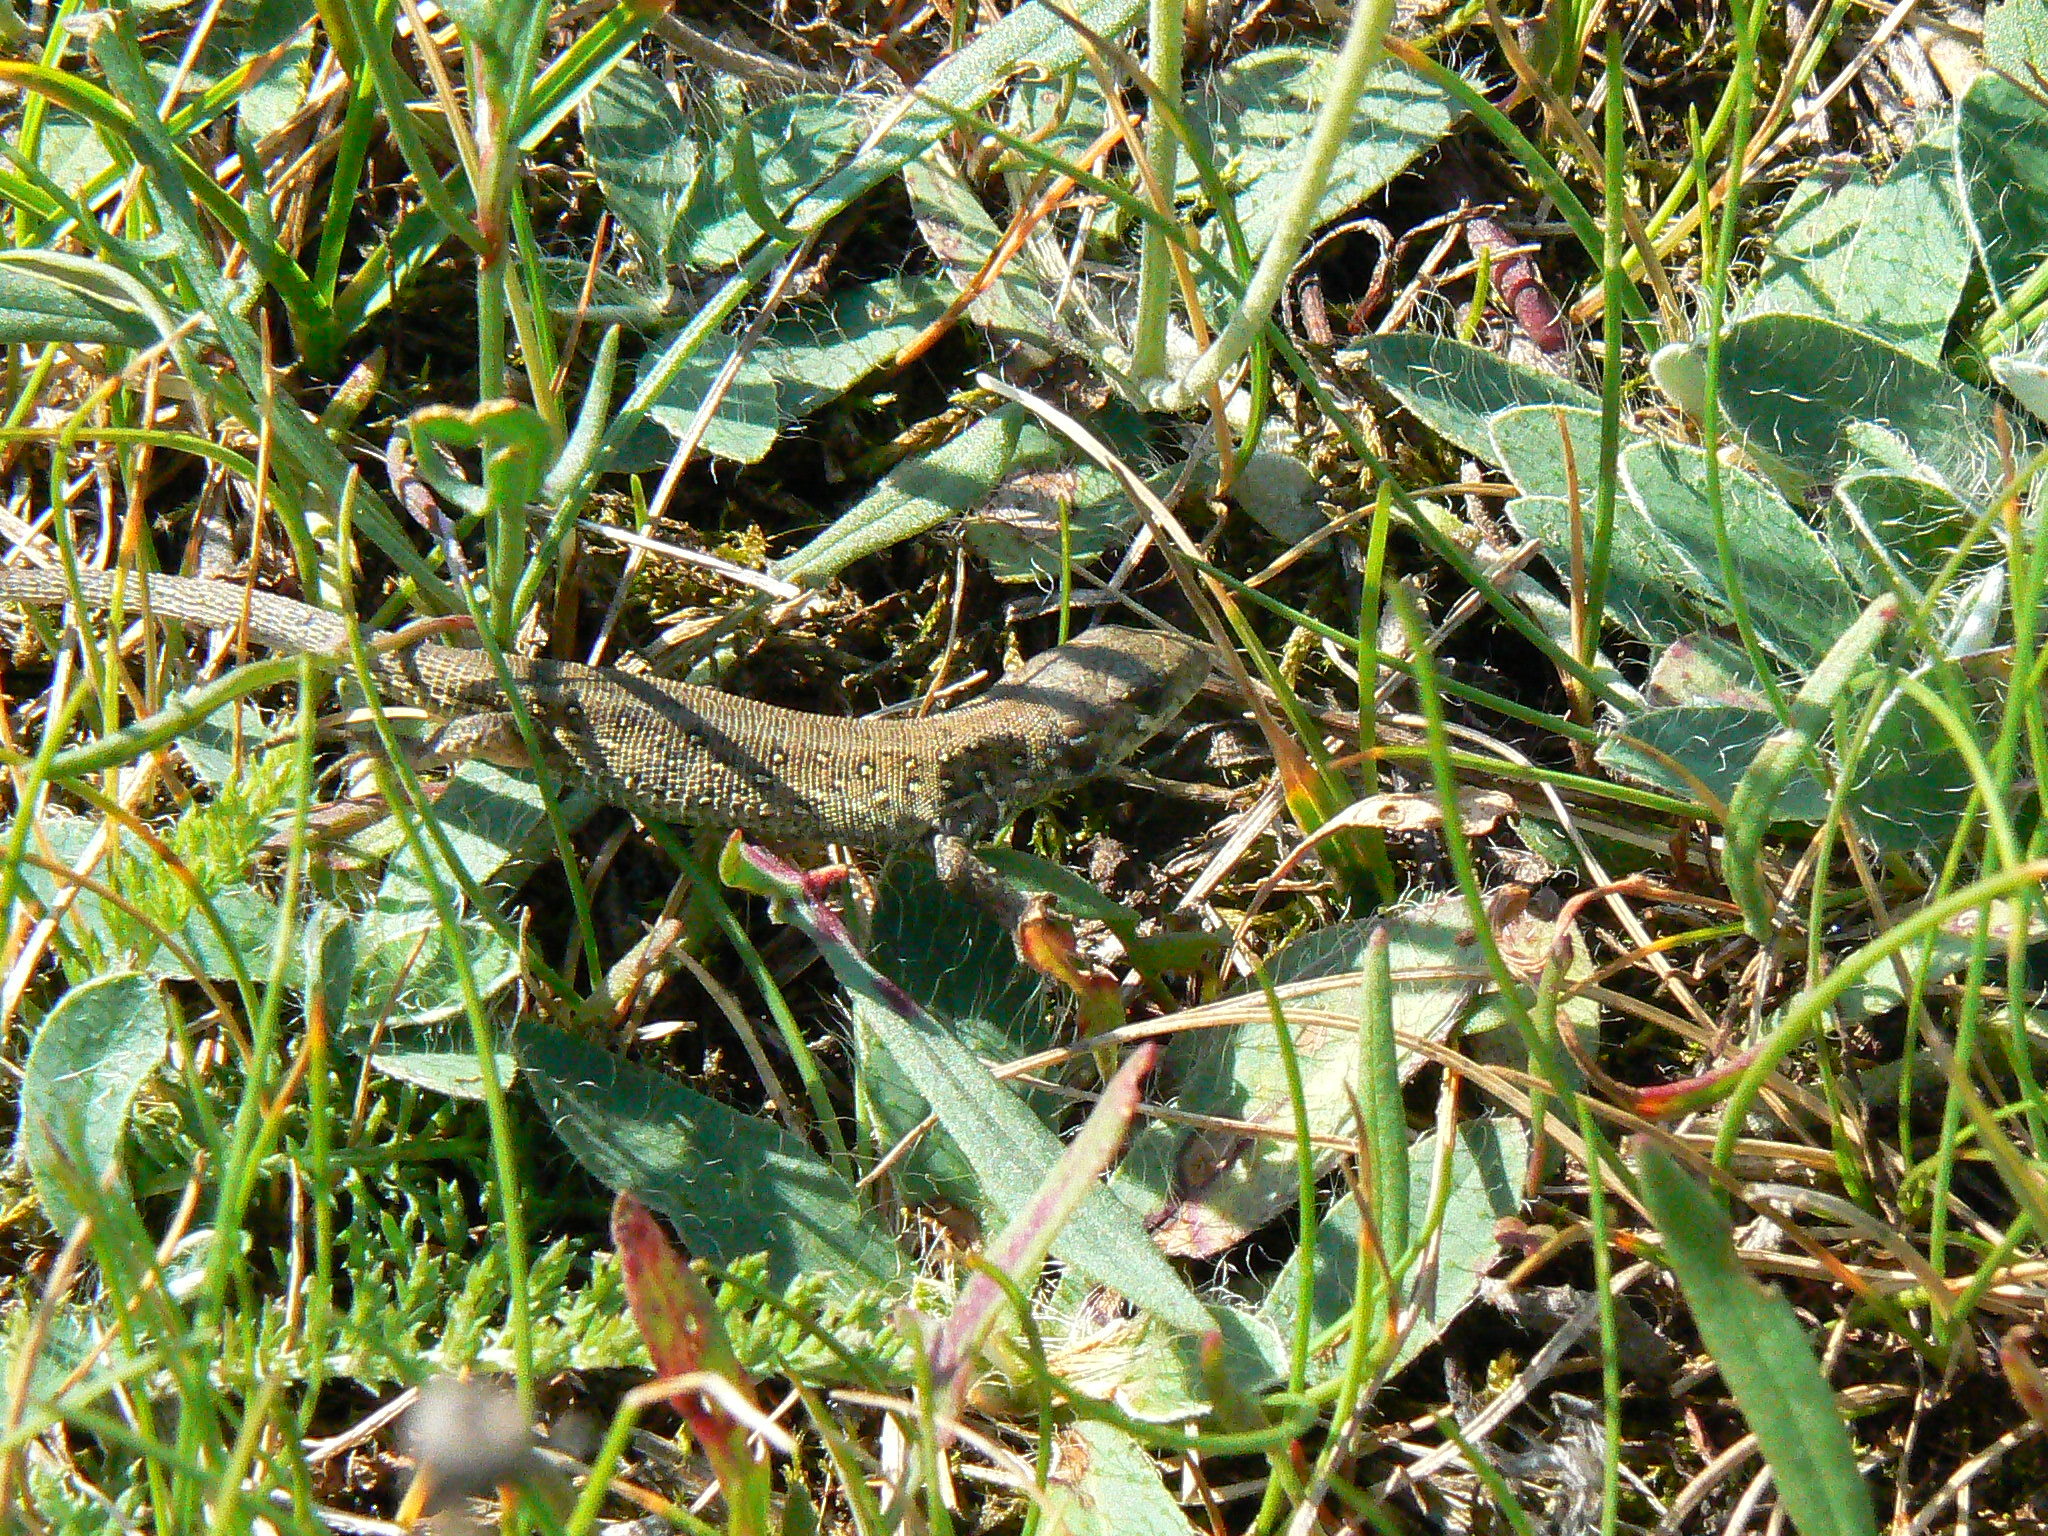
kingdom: Animalia
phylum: Chordata
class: Squamata
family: Lacertidae
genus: Lacerta
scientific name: Lacerta agilis
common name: Sand lizard
